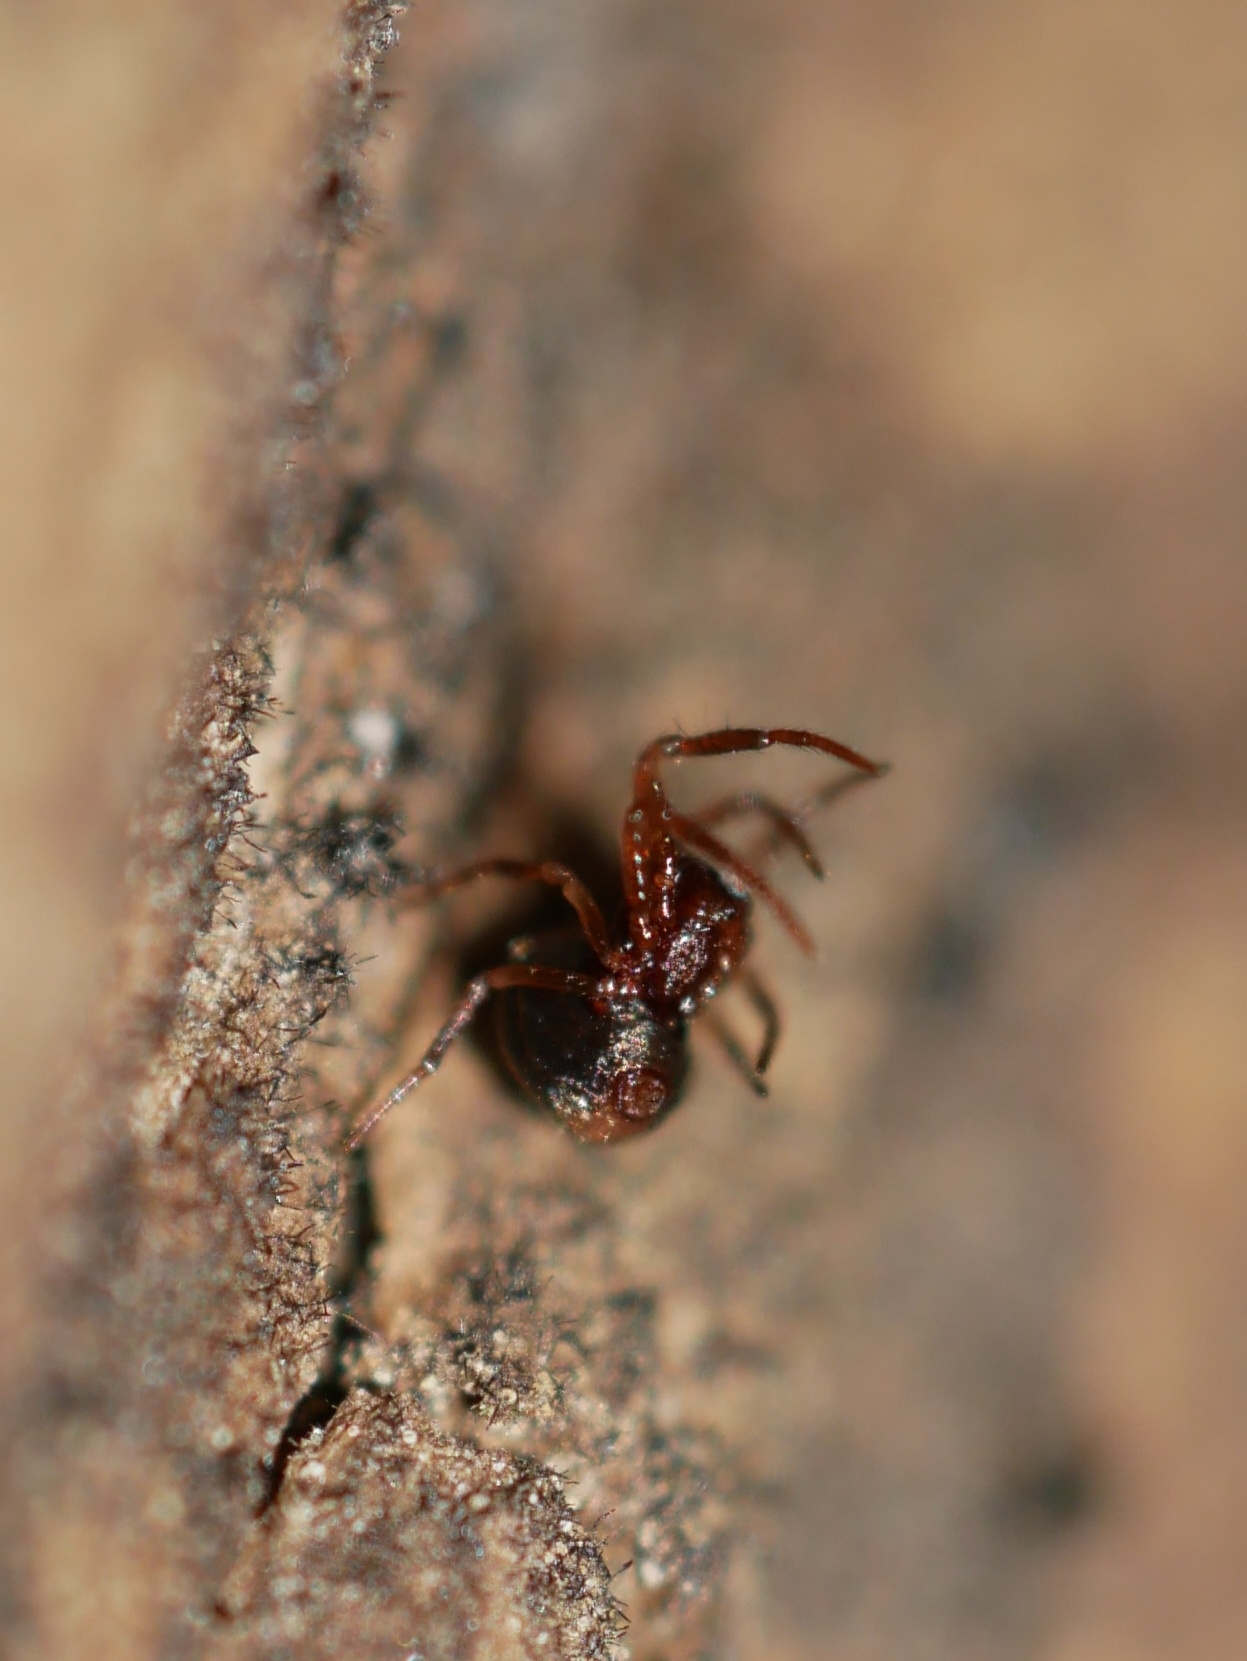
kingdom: Animalia
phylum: Arthropoda
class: Arachnida
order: Araneae
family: Anapidae
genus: Gertschanapis
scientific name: Gertschanapis shantzi
